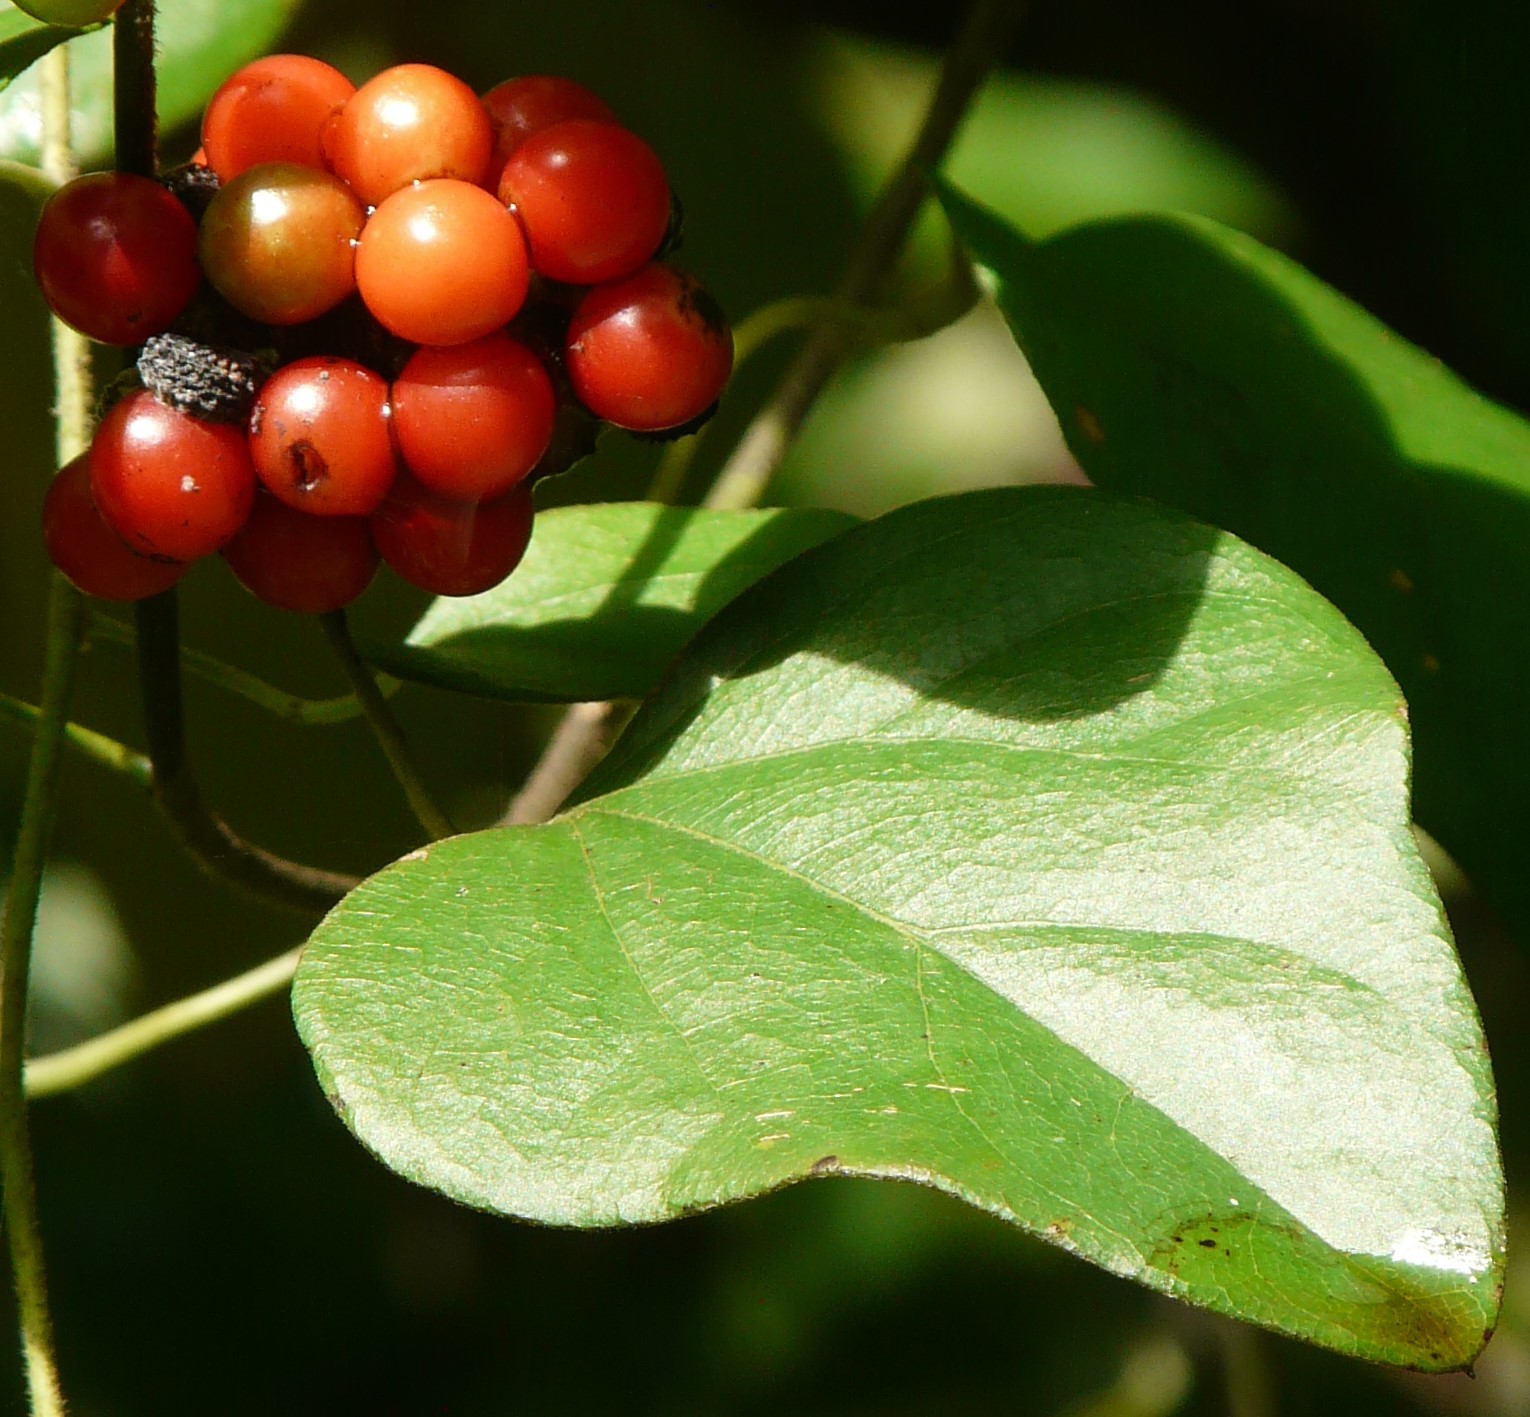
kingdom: Plantae
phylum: Tracheophyta
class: Magnoliopsida
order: Ranunculales
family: Menispermaceae
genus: Cocculus
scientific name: Cocculus carolinus
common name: Carolina moonseed
